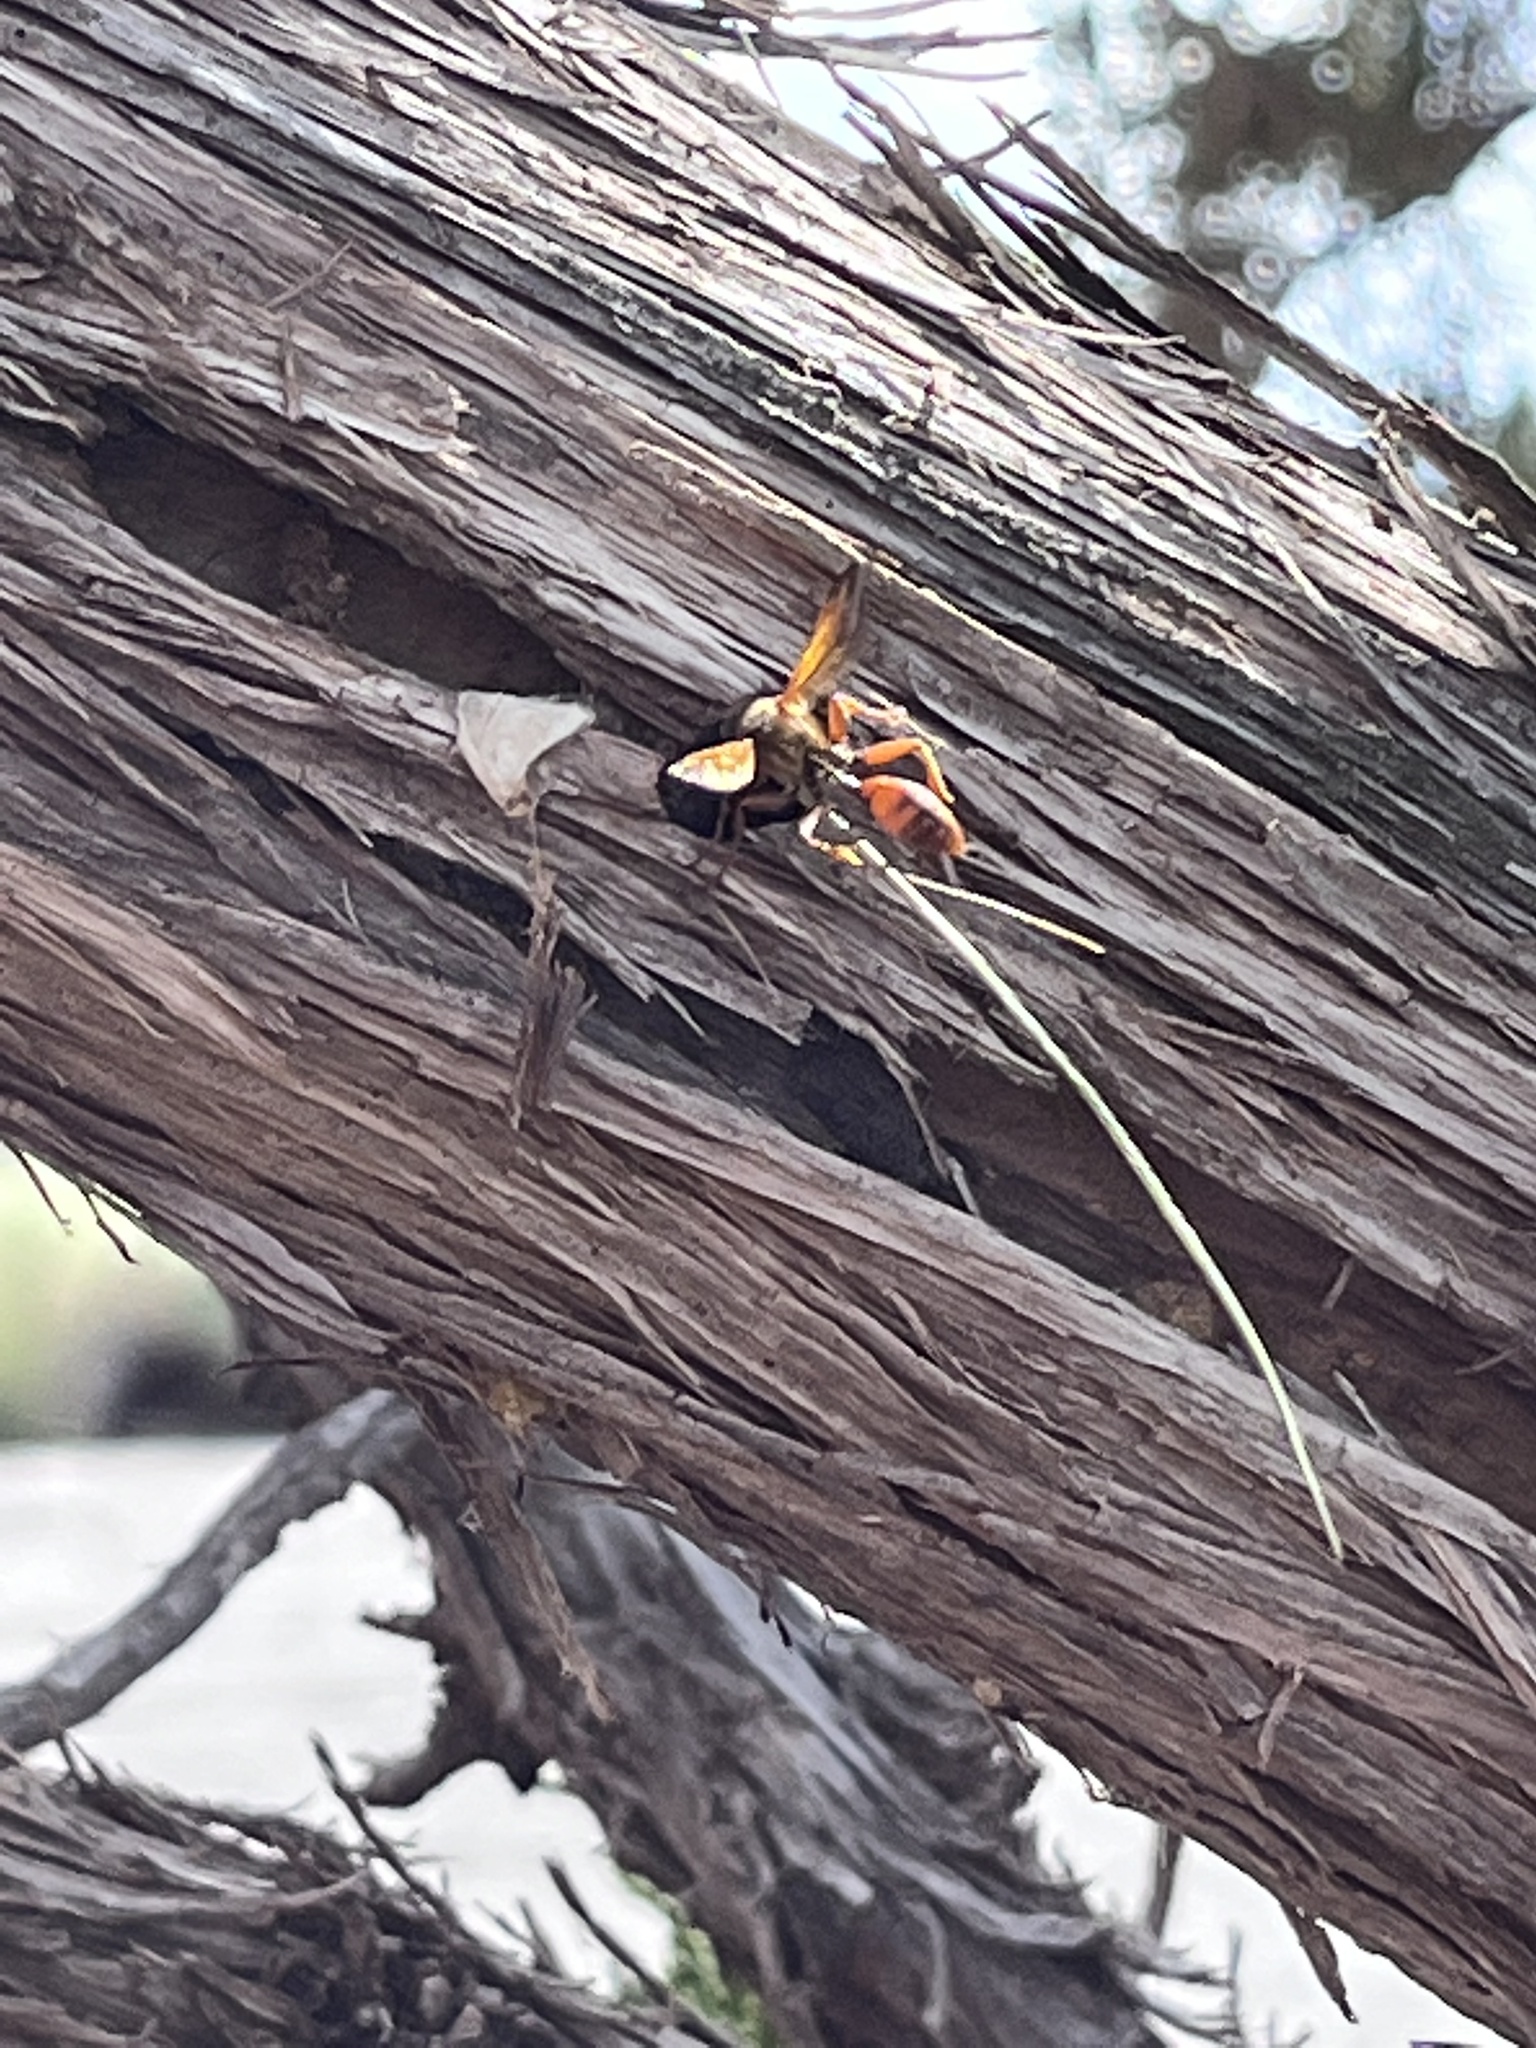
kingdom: Animalia
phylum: Arthropoda
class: Insecta
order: Hymenoptera
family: Sphecidae
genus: Isodontia
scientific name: Isodontia elegans
